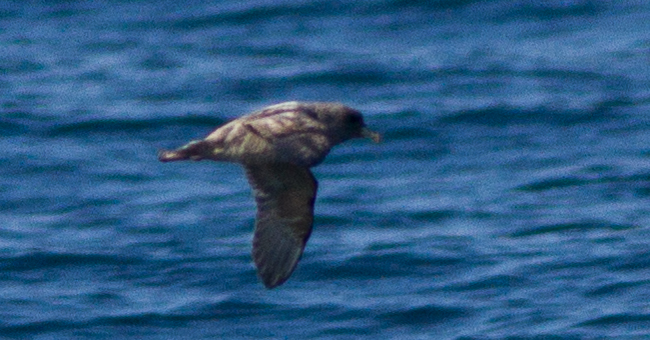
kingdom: Animalia
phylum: Chordata
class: Aves
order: Procellariiformes
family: Procellariidae
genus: Fulmarus
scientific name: Fulmarus glacialis
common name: Northern fulmar
